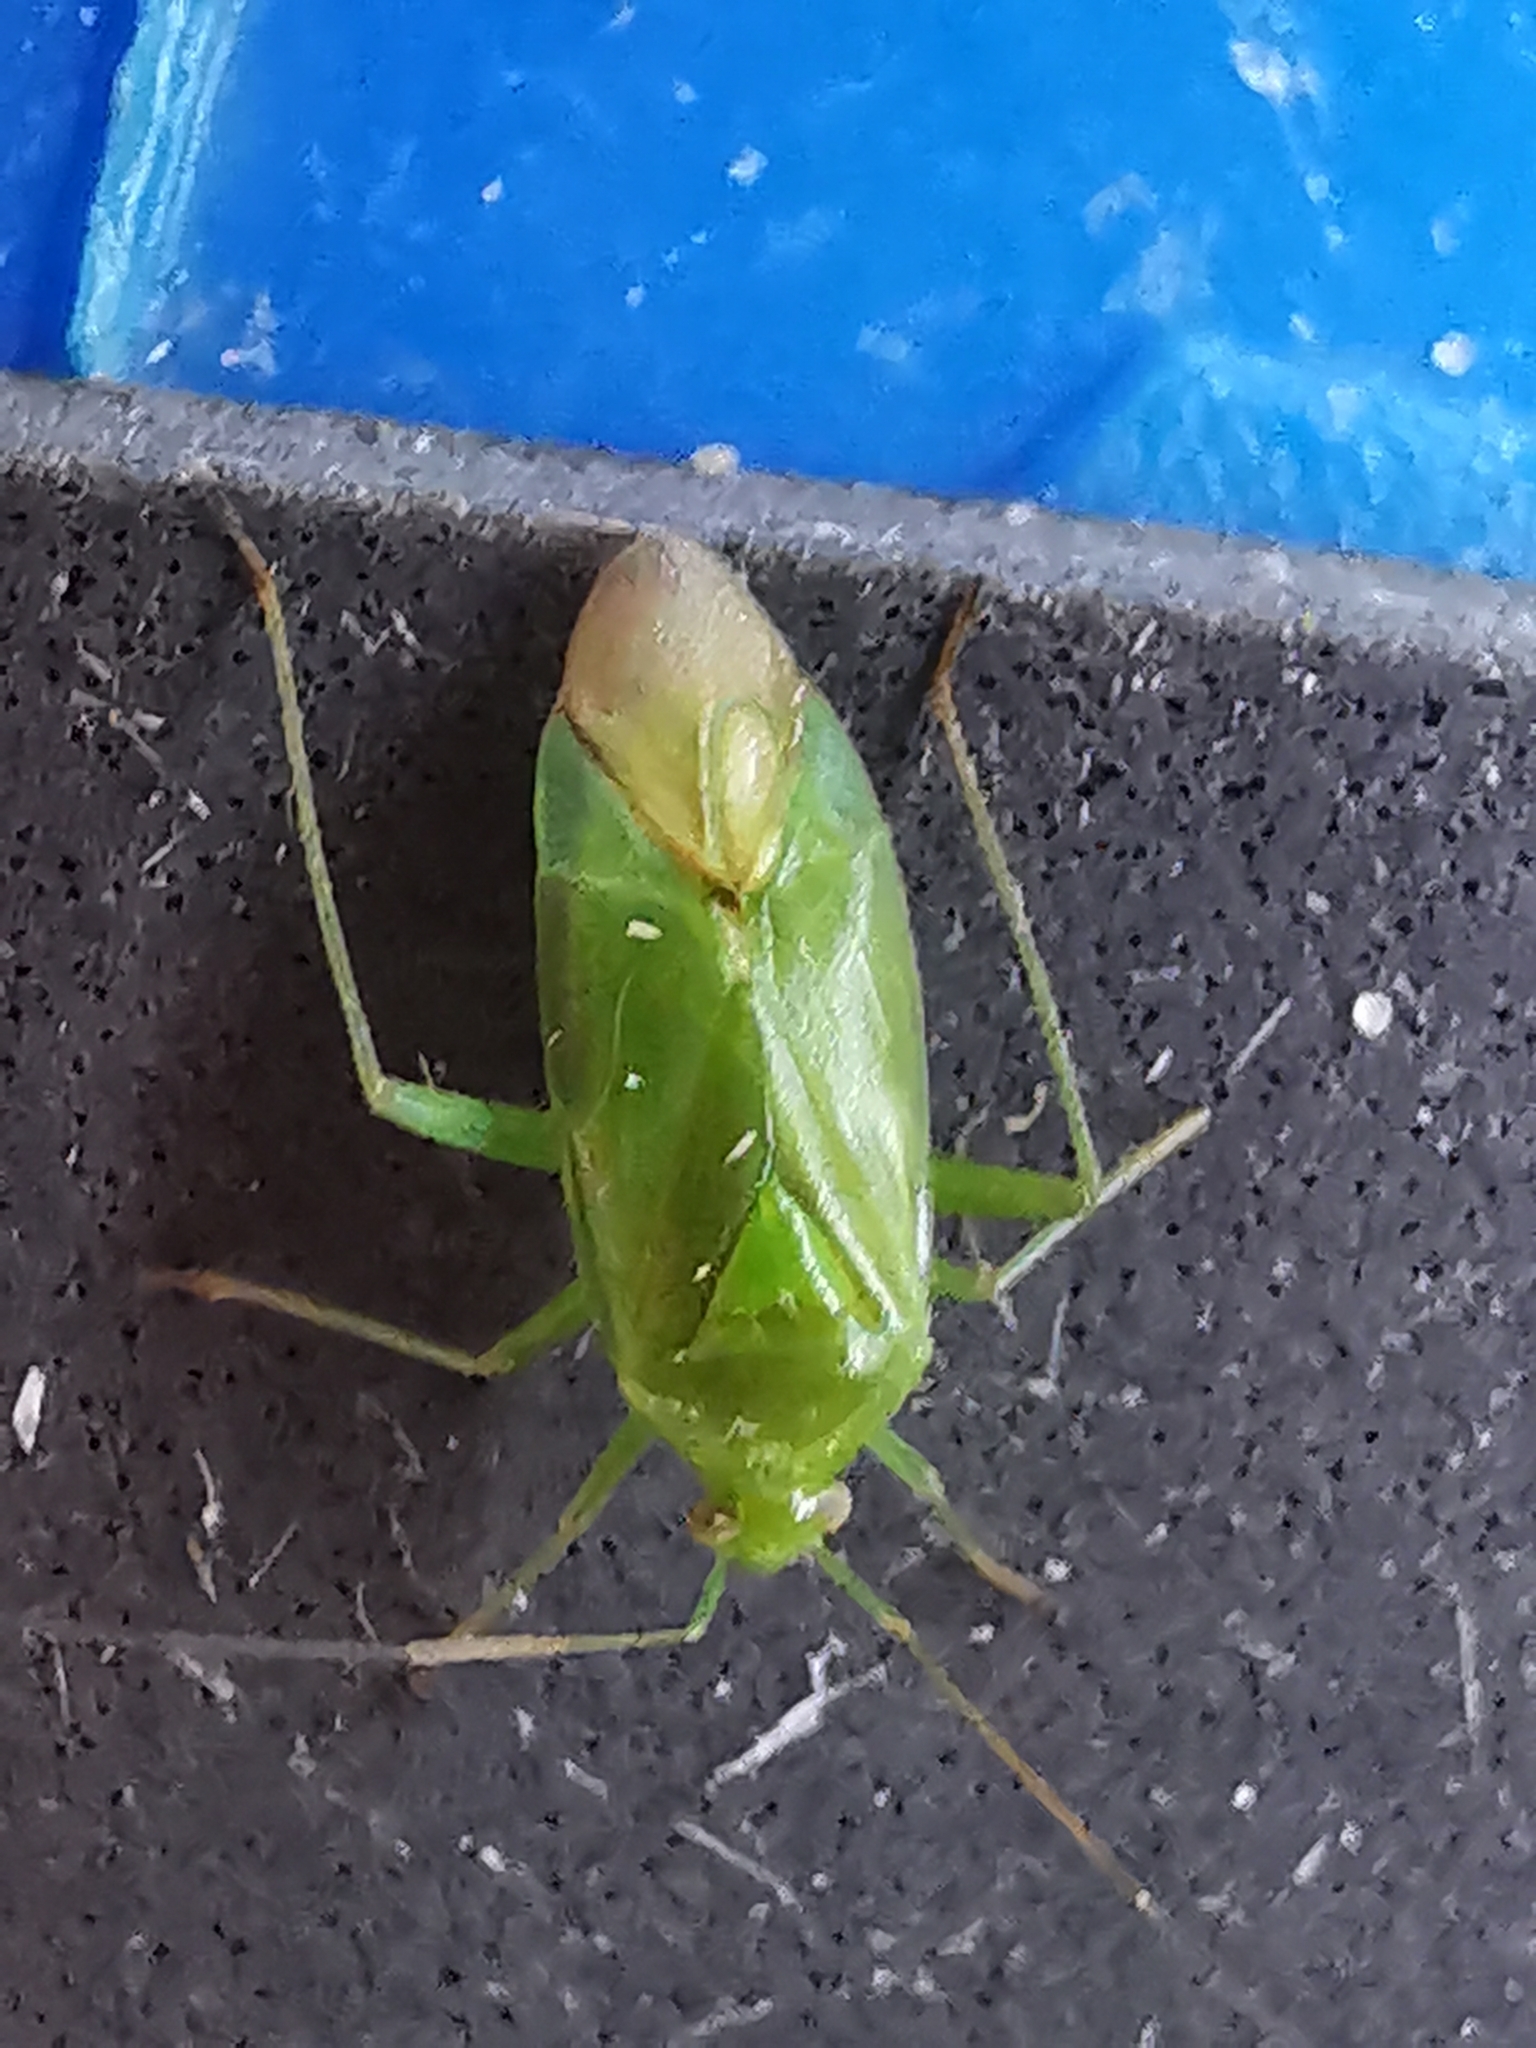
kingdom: Animalia
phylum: Arthropoda
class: Insecta
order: Hemiptera
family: Miridae
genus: Lygocoris
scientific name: Lygocoris pabulinus
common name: Common green capsid
